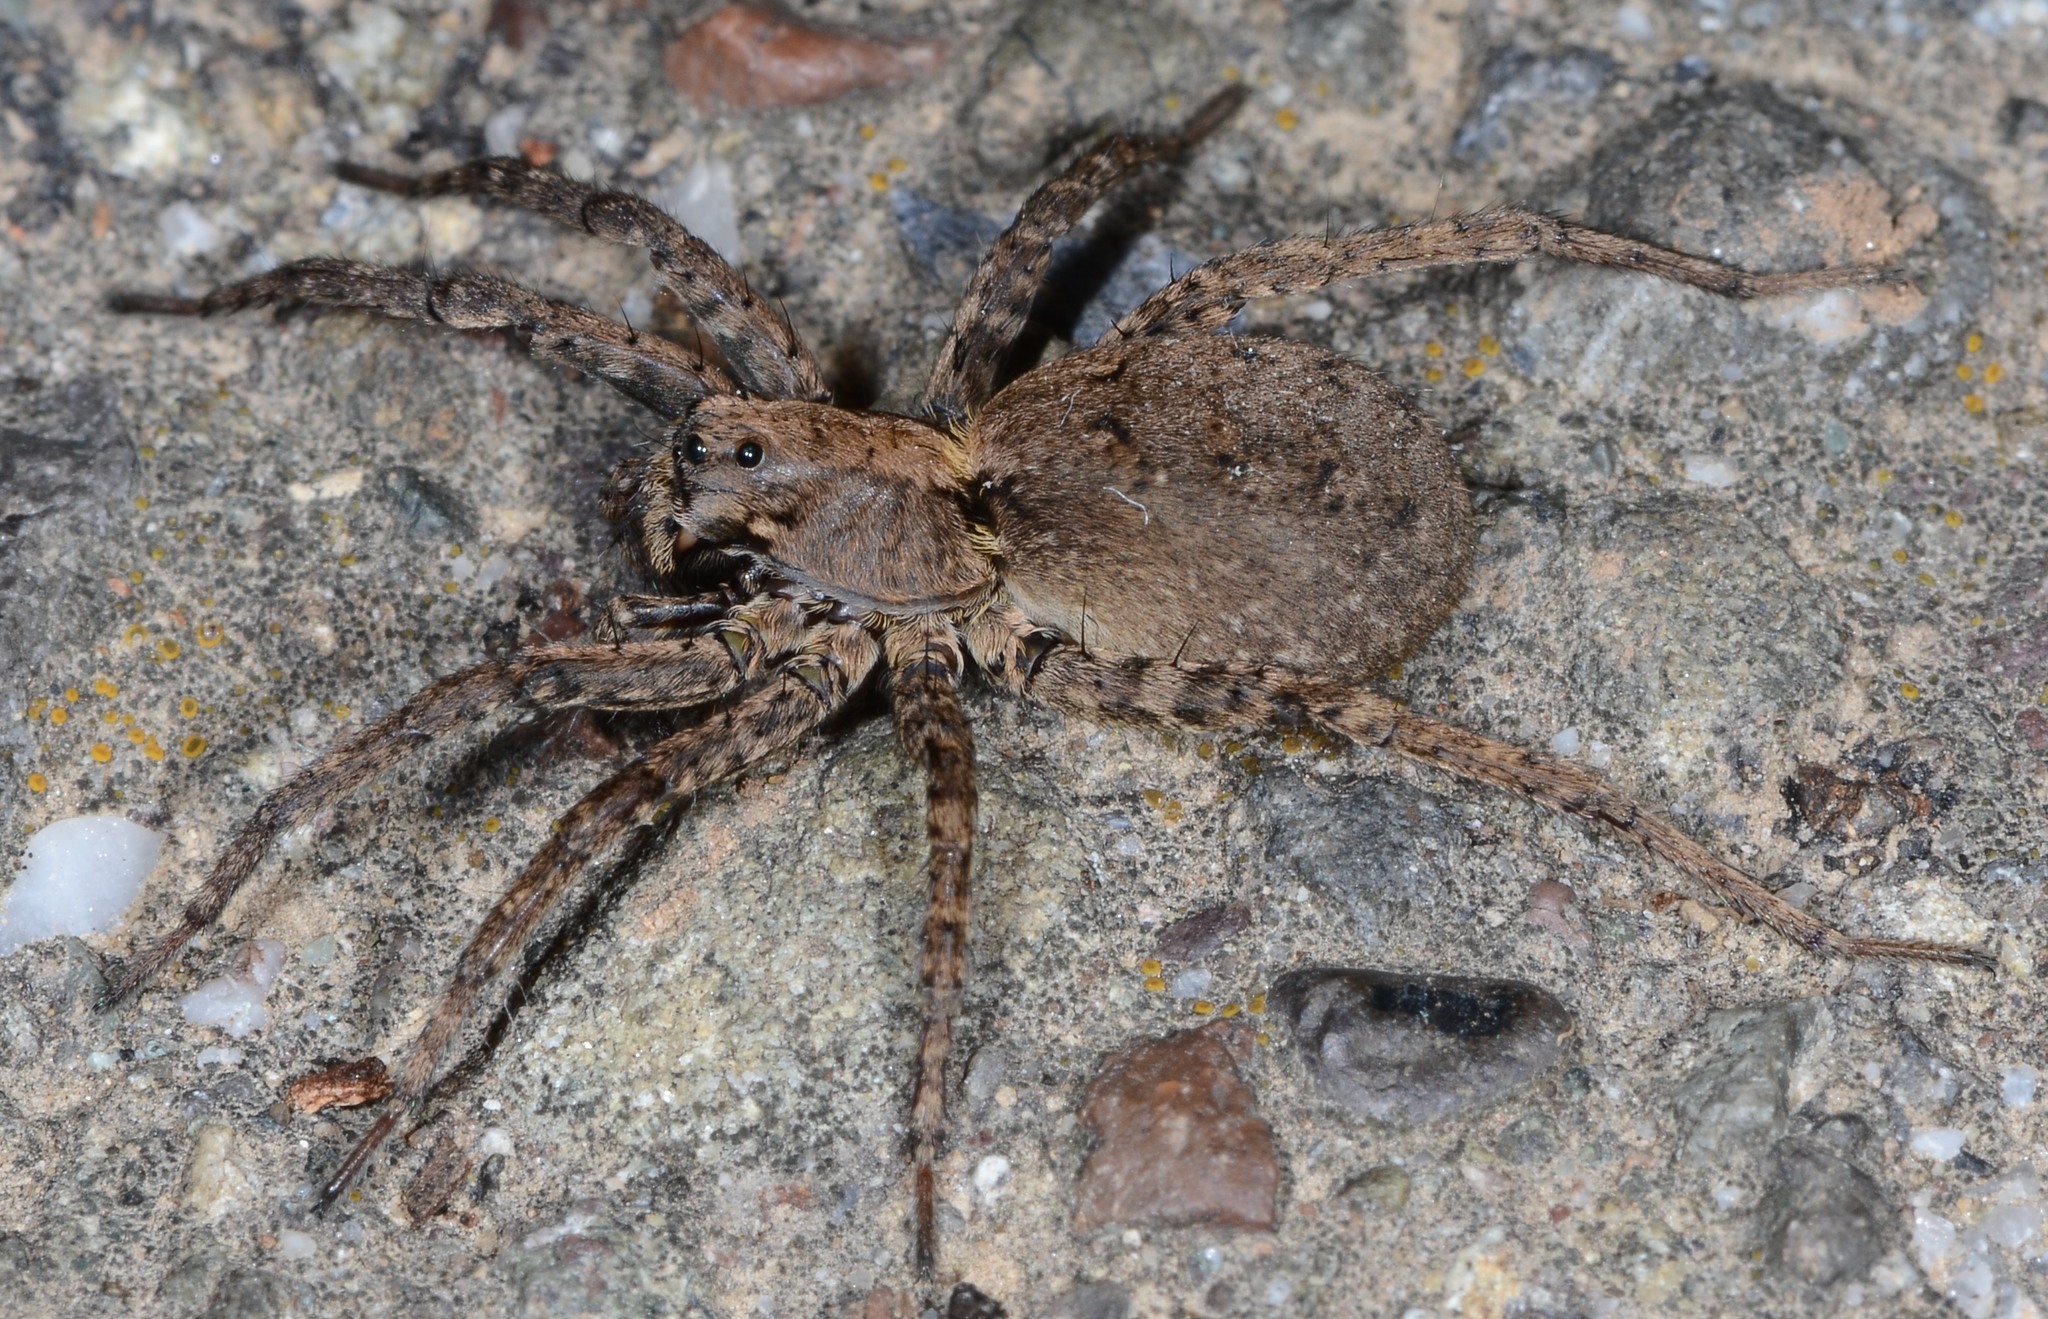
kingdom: Animalia
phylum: Arthropoda
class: Arachnida
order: Araneae
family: Lycosidae
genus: Alopecosa
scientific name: Alopecosa kochi
